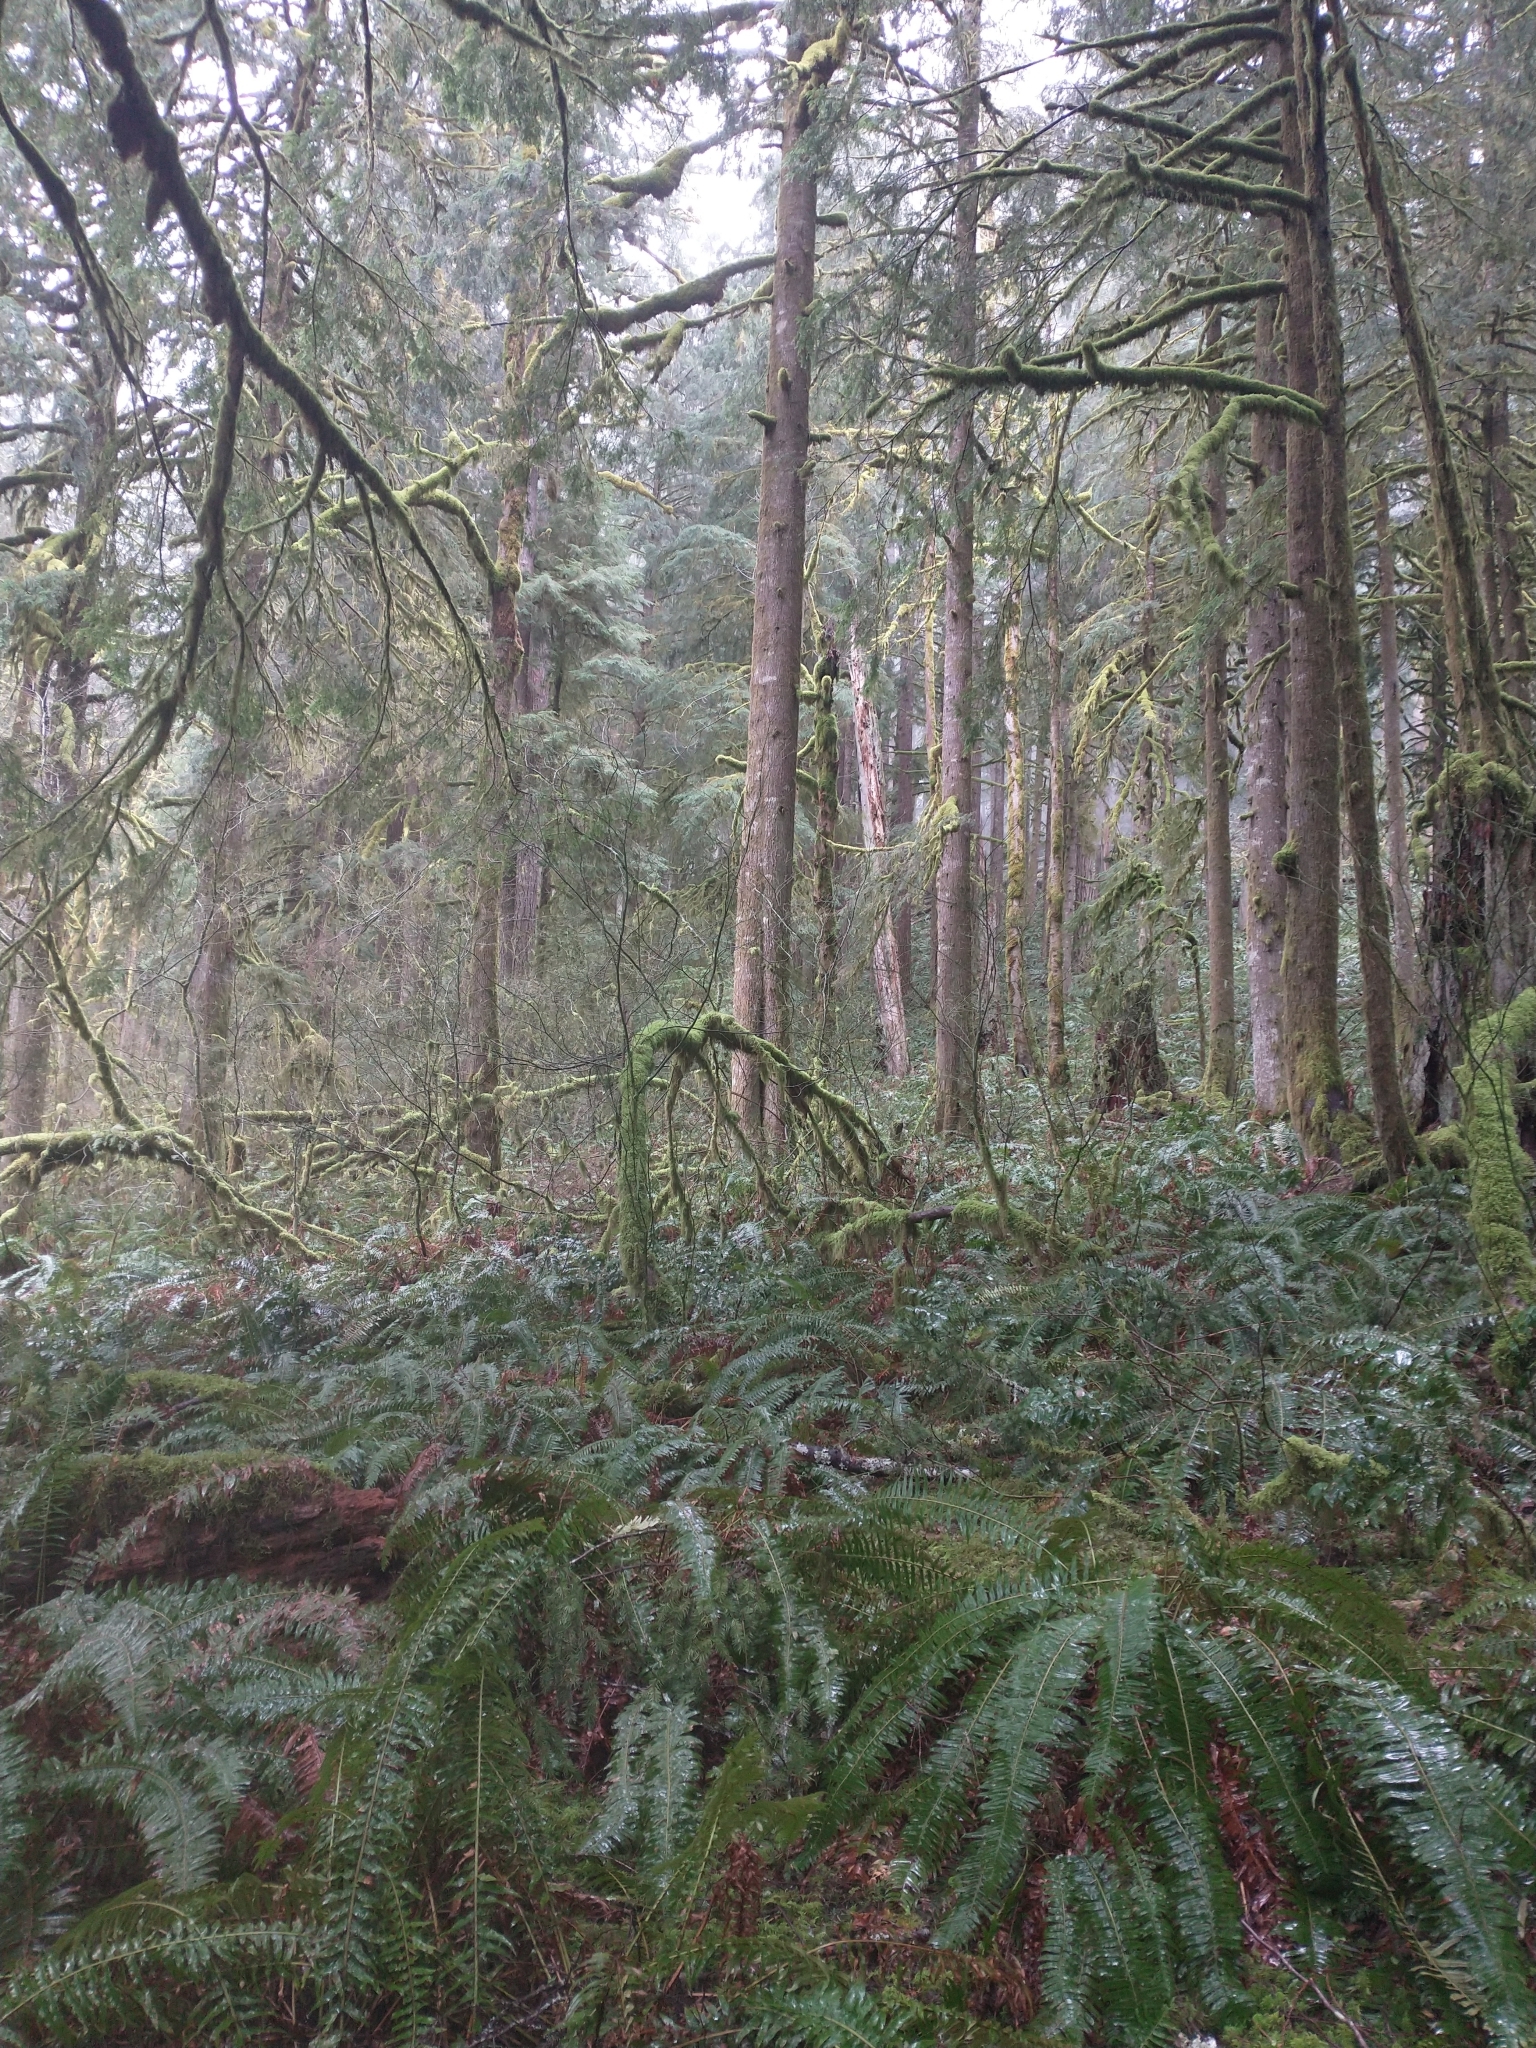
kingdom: Plantae
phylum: Tracheophyta
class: Polypodiopsida
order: Polypodiales
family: Dryopteridaceae
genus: Polystichum
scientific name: Polystichum munitum
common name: Western sword-fern
